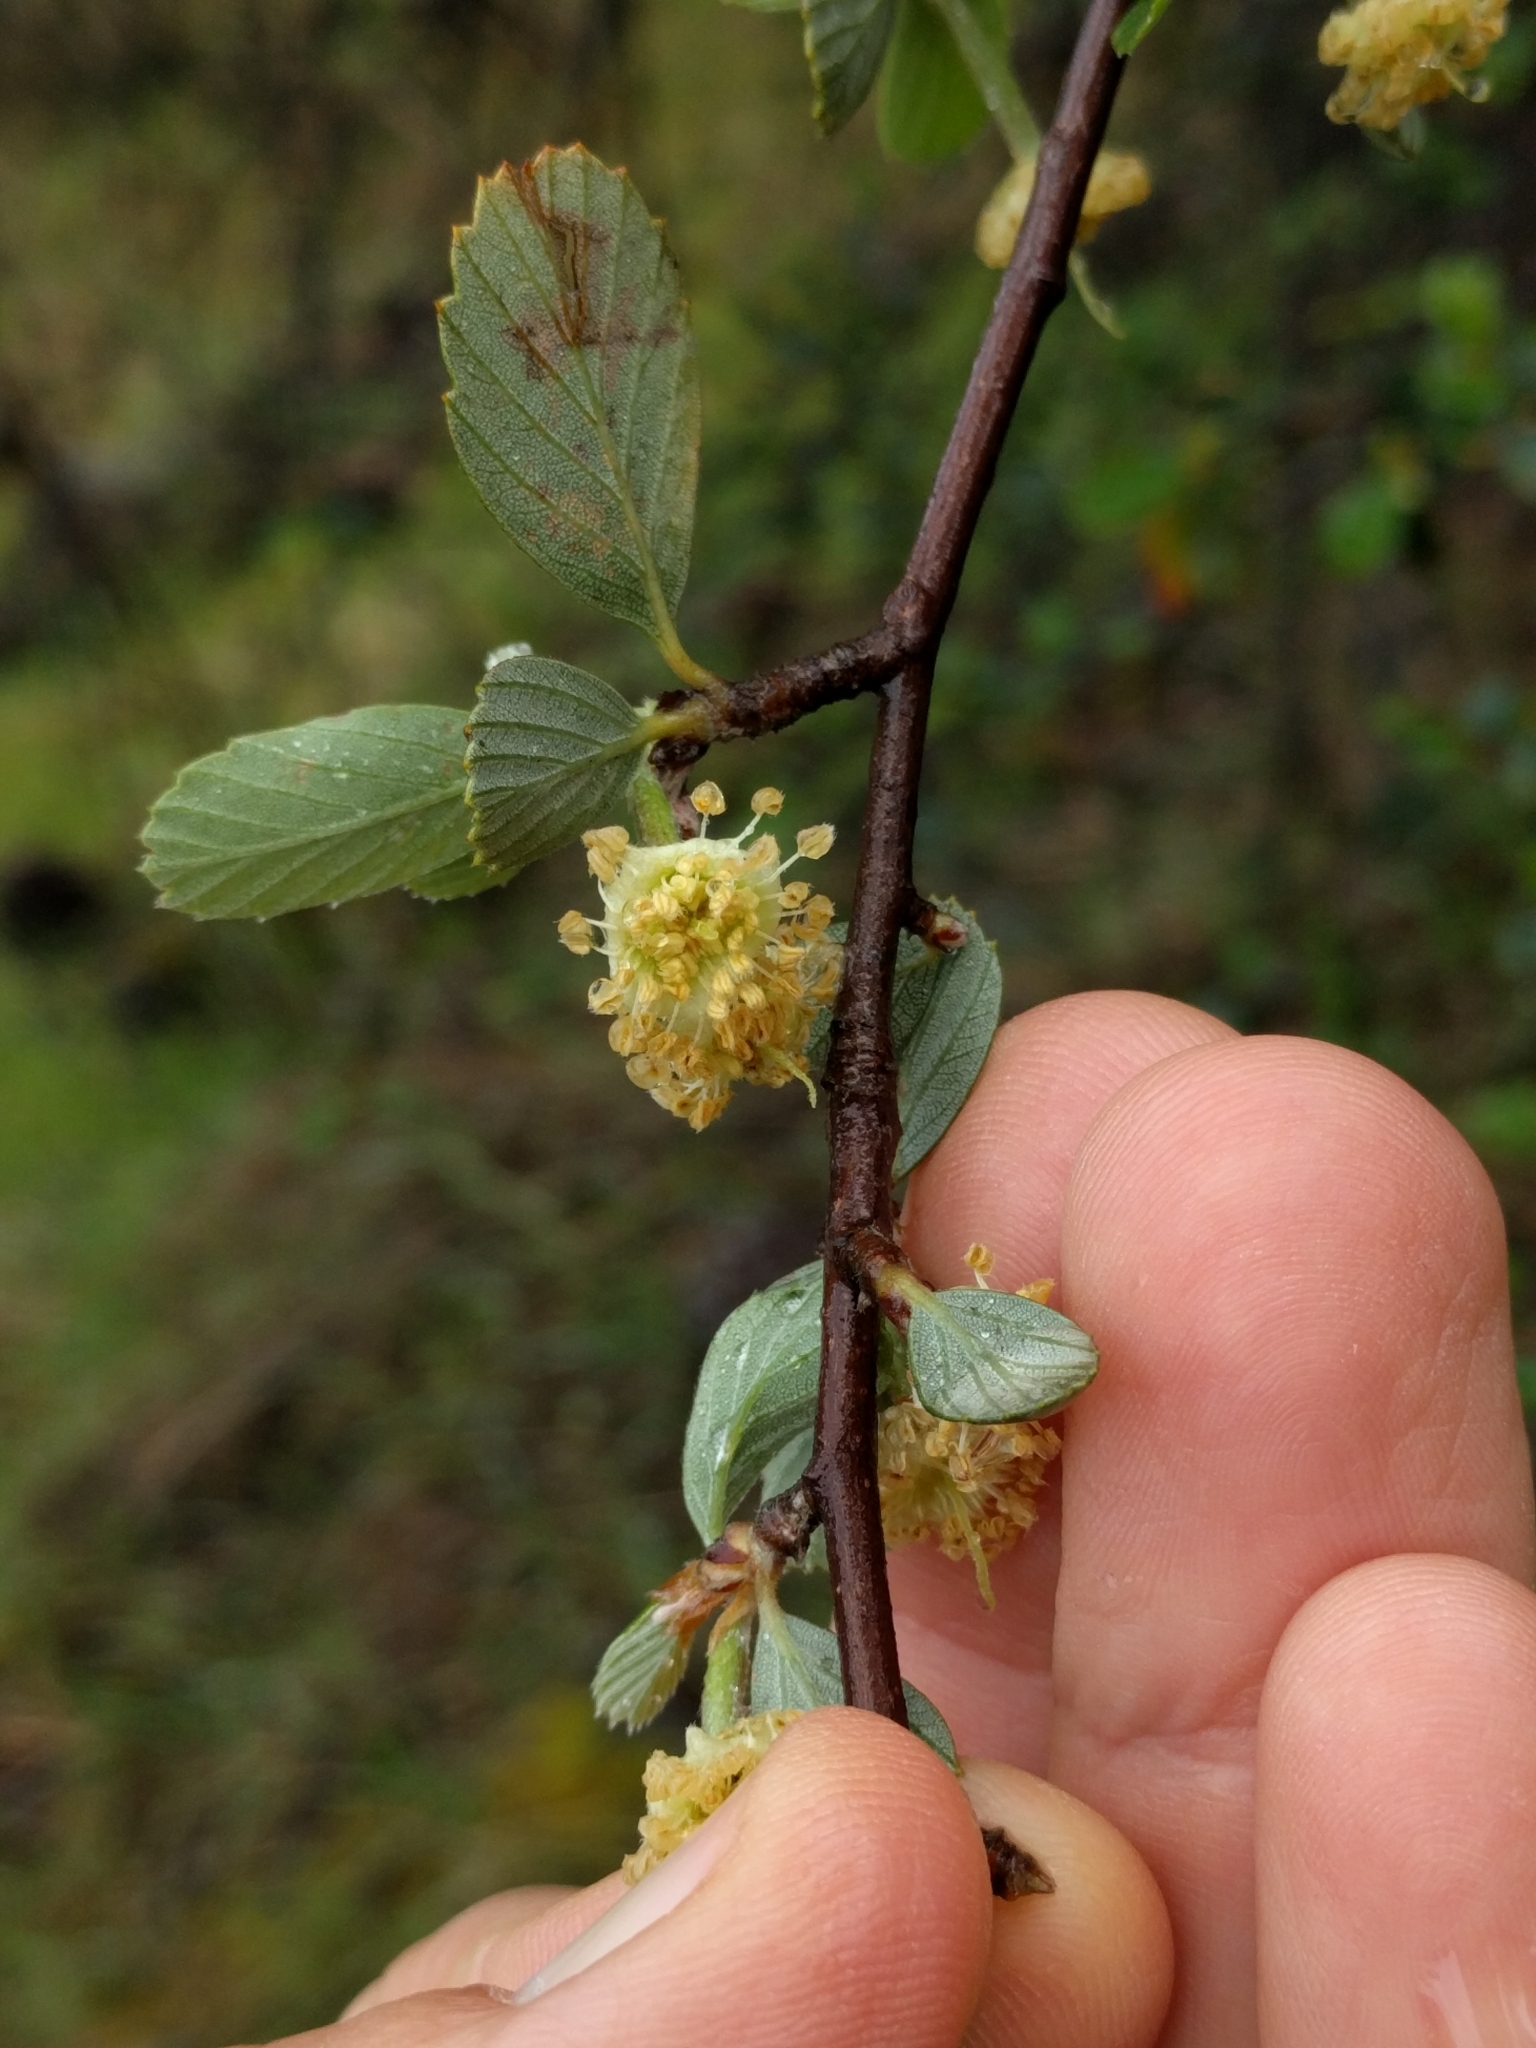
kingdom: Plantae
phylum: Tracheophyta
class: Magnoliopsida
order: Rosales
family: Rosaceae
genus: Cercocarpus
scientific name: Cercocarpus betuloides
